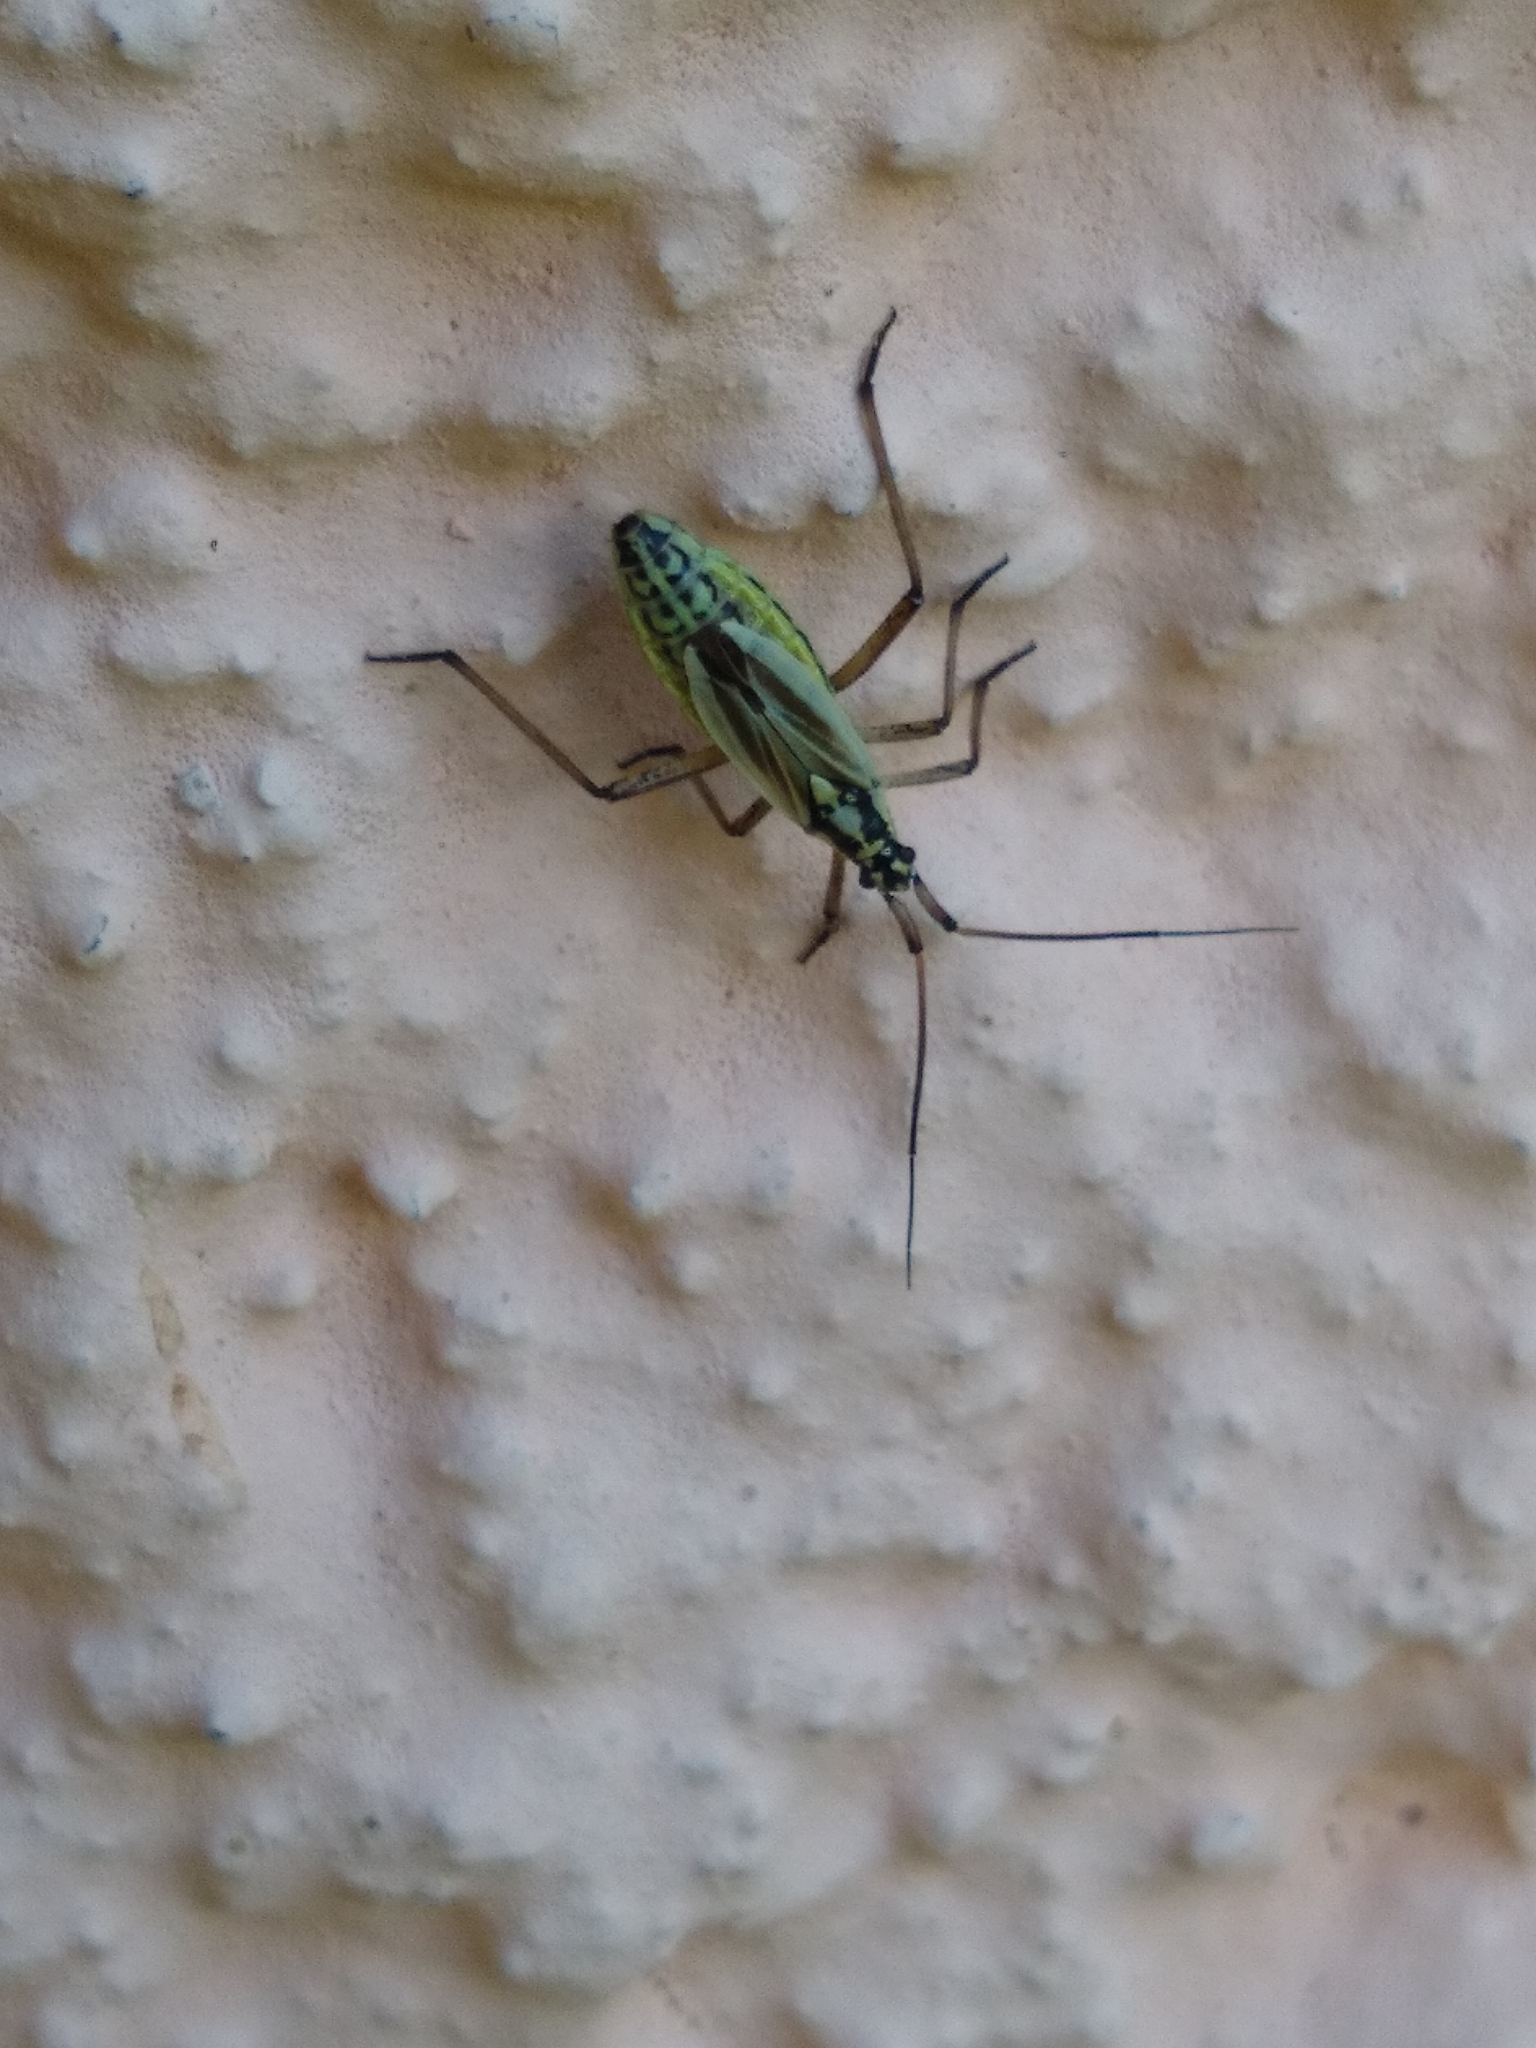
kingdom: Animalia
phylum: Arthropoda
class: Insecta
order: Hemiptera
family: Miridae
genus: Leptopterna
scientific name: Leptopterna dolabrata
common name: Meadow plant bug
